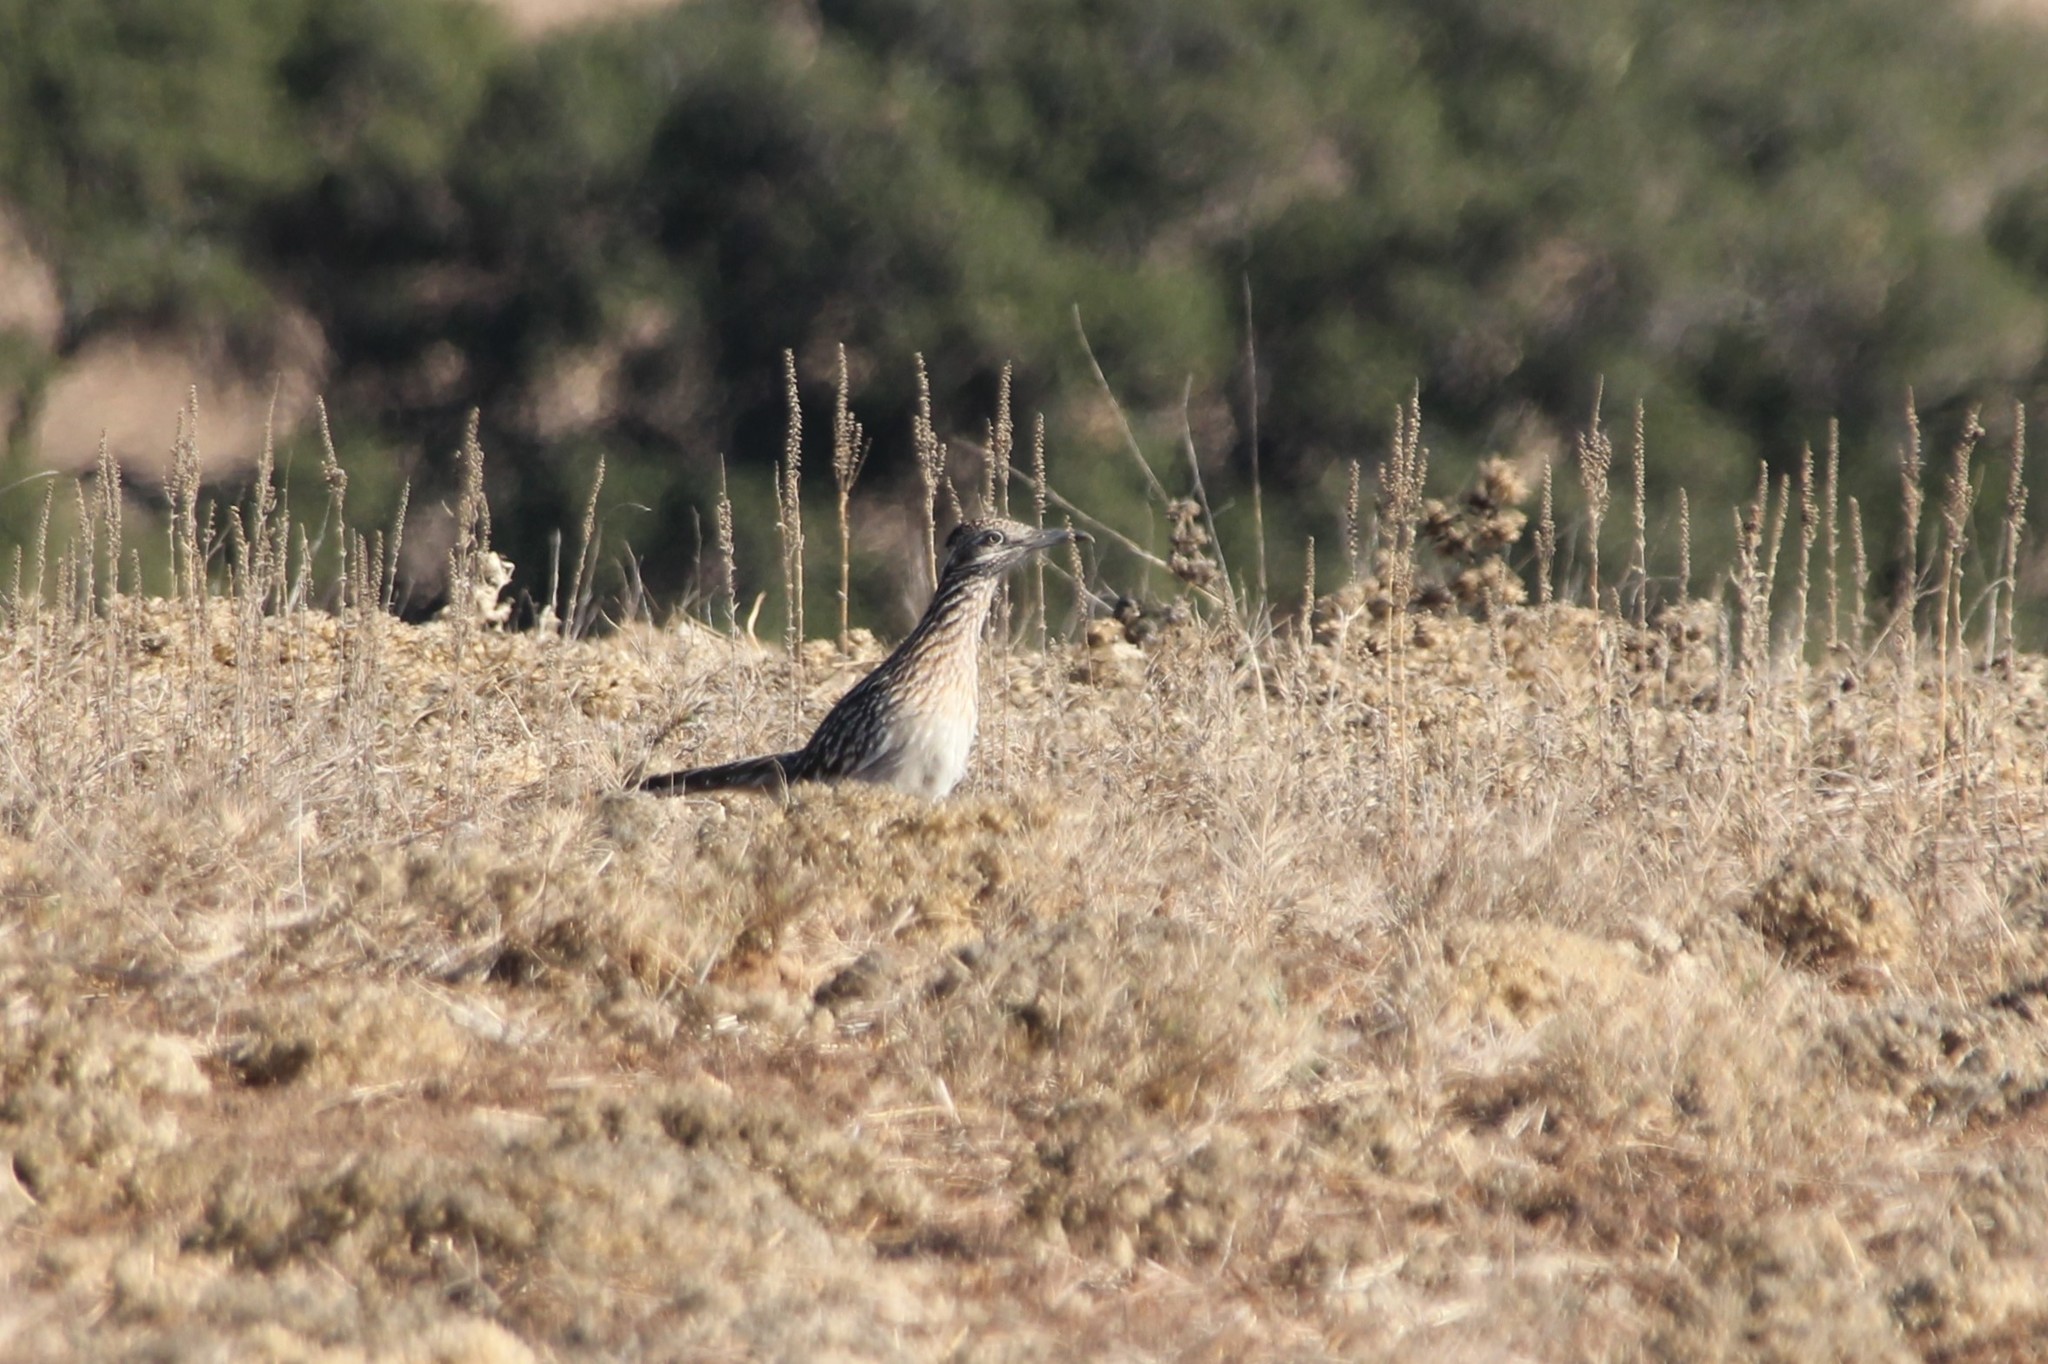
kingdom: Animalia
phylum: Chordata
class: Aves
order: Cuculiformes
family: Cuculidae
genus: Geococcyx
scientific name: Geococcyx californianus
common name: Greater roadrunner
